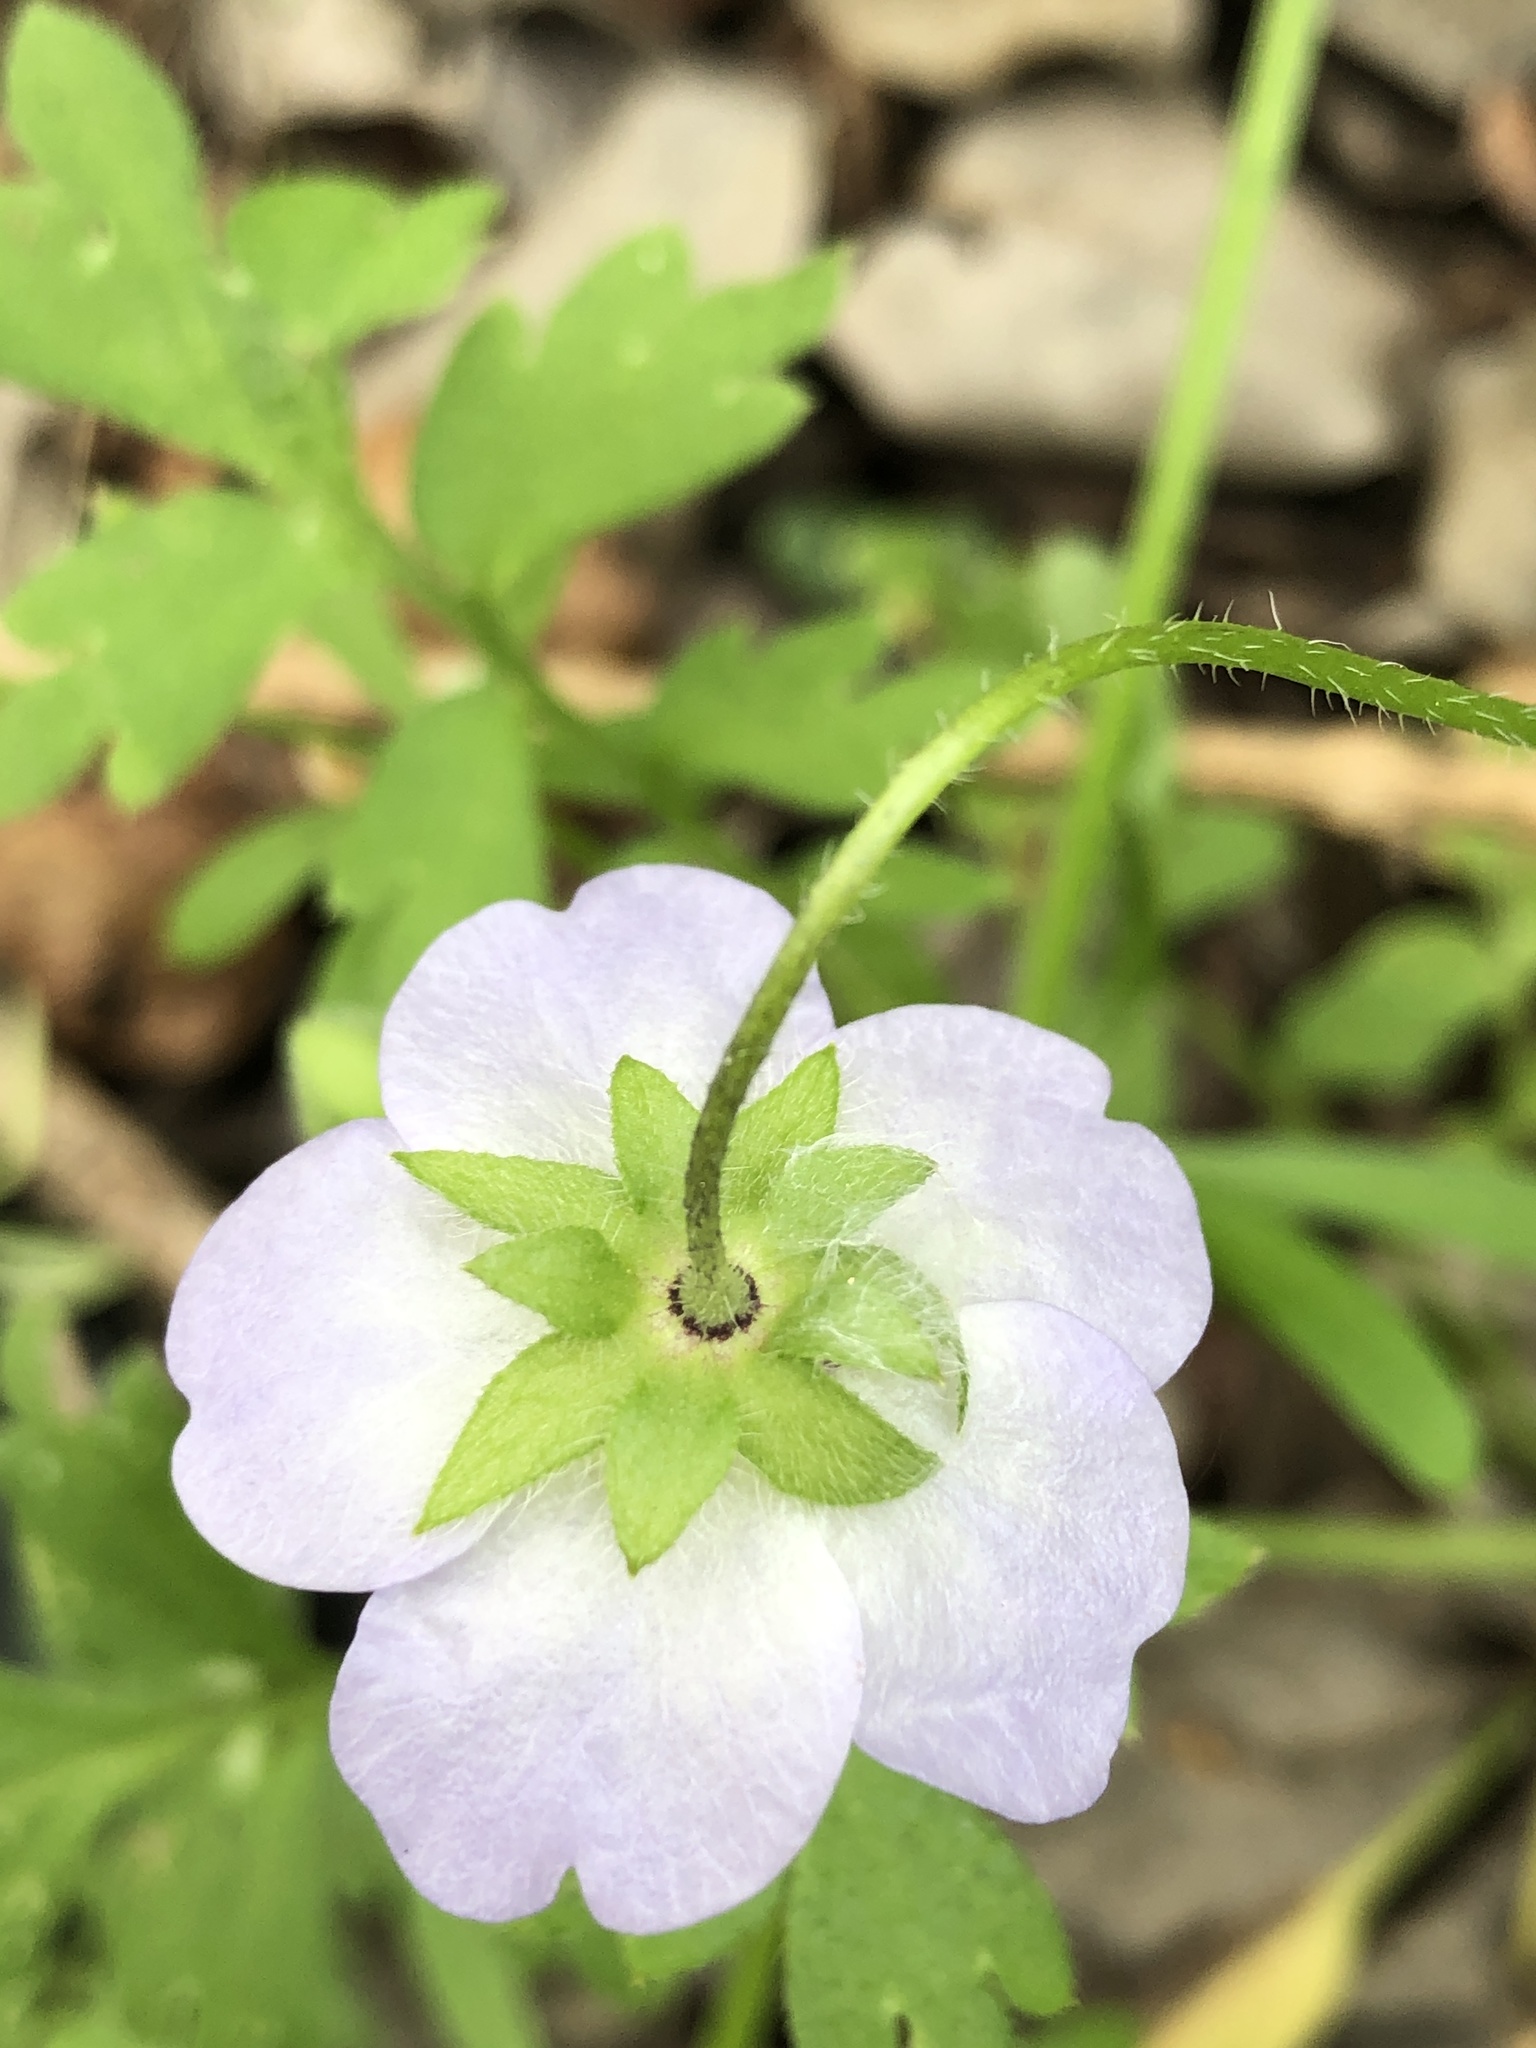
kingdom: Plantae
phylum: Tracheophyta
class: Magnoliopsida
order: Boraginales
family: Hydrophyllaceae
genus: Nemophila
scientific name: Nemophila phacelioides
